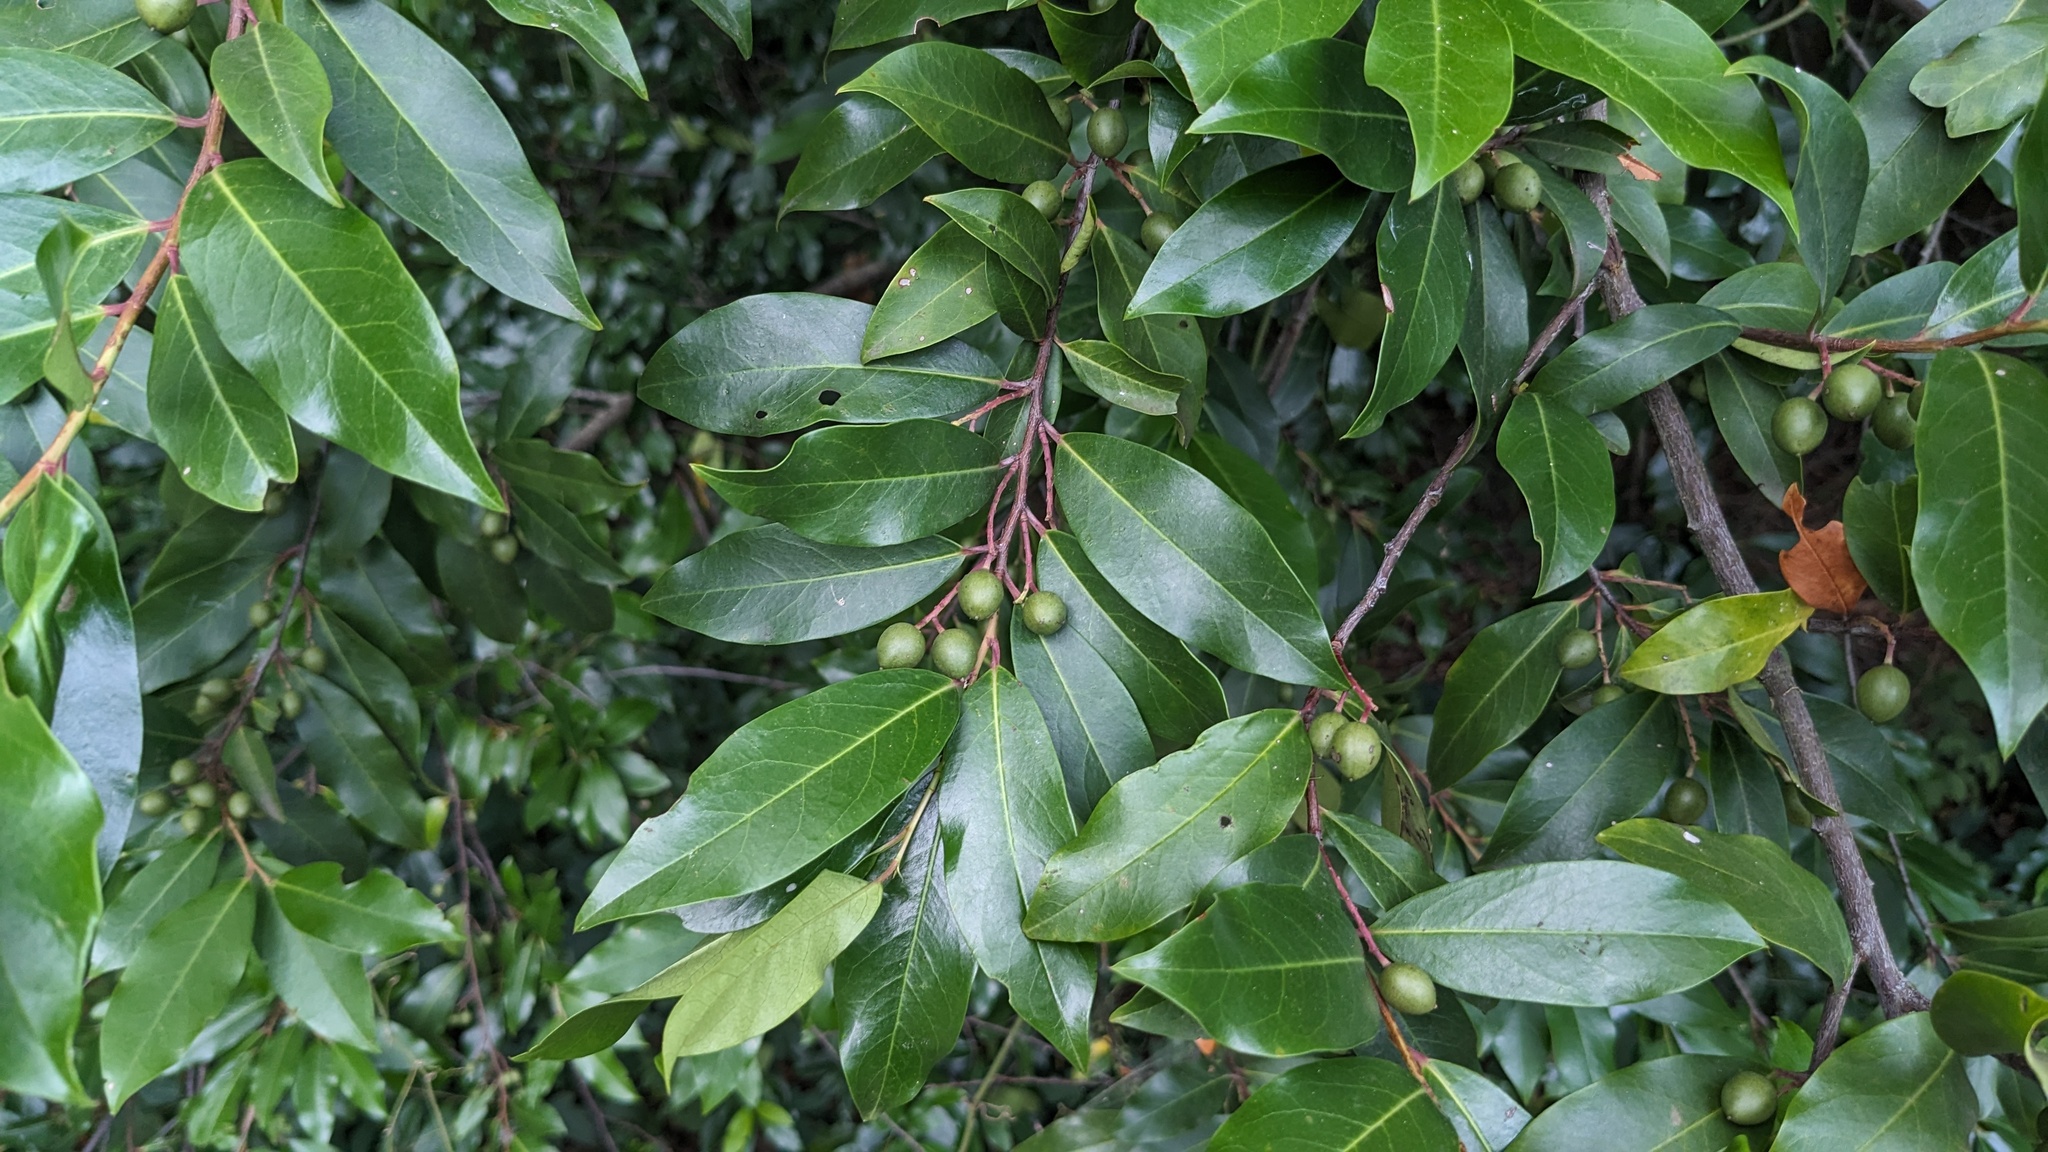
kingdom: Plantae
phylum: Tracheophyta
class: Magnoliopsida
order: Rosales
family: Rosaceae
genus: Prunus
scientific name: Prunus caroliniana
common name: Carolina laurel cherry
